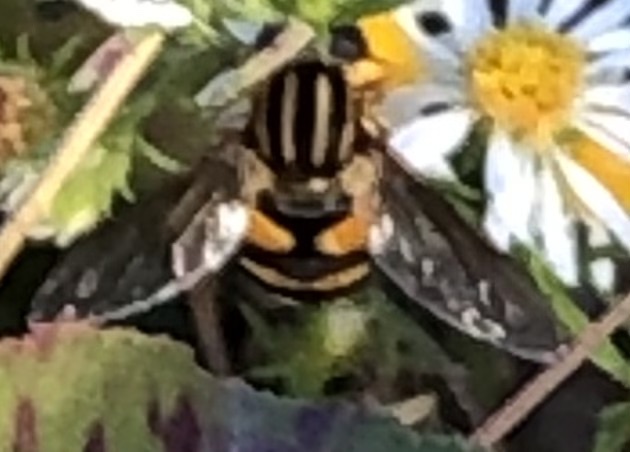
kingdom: Animalia
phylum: Arthropoda
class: Insecta
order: Diptera
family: Syrphidae
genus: Helophilus
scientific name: Helophilus fasciatus
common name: Narrow-headed marsh fly
